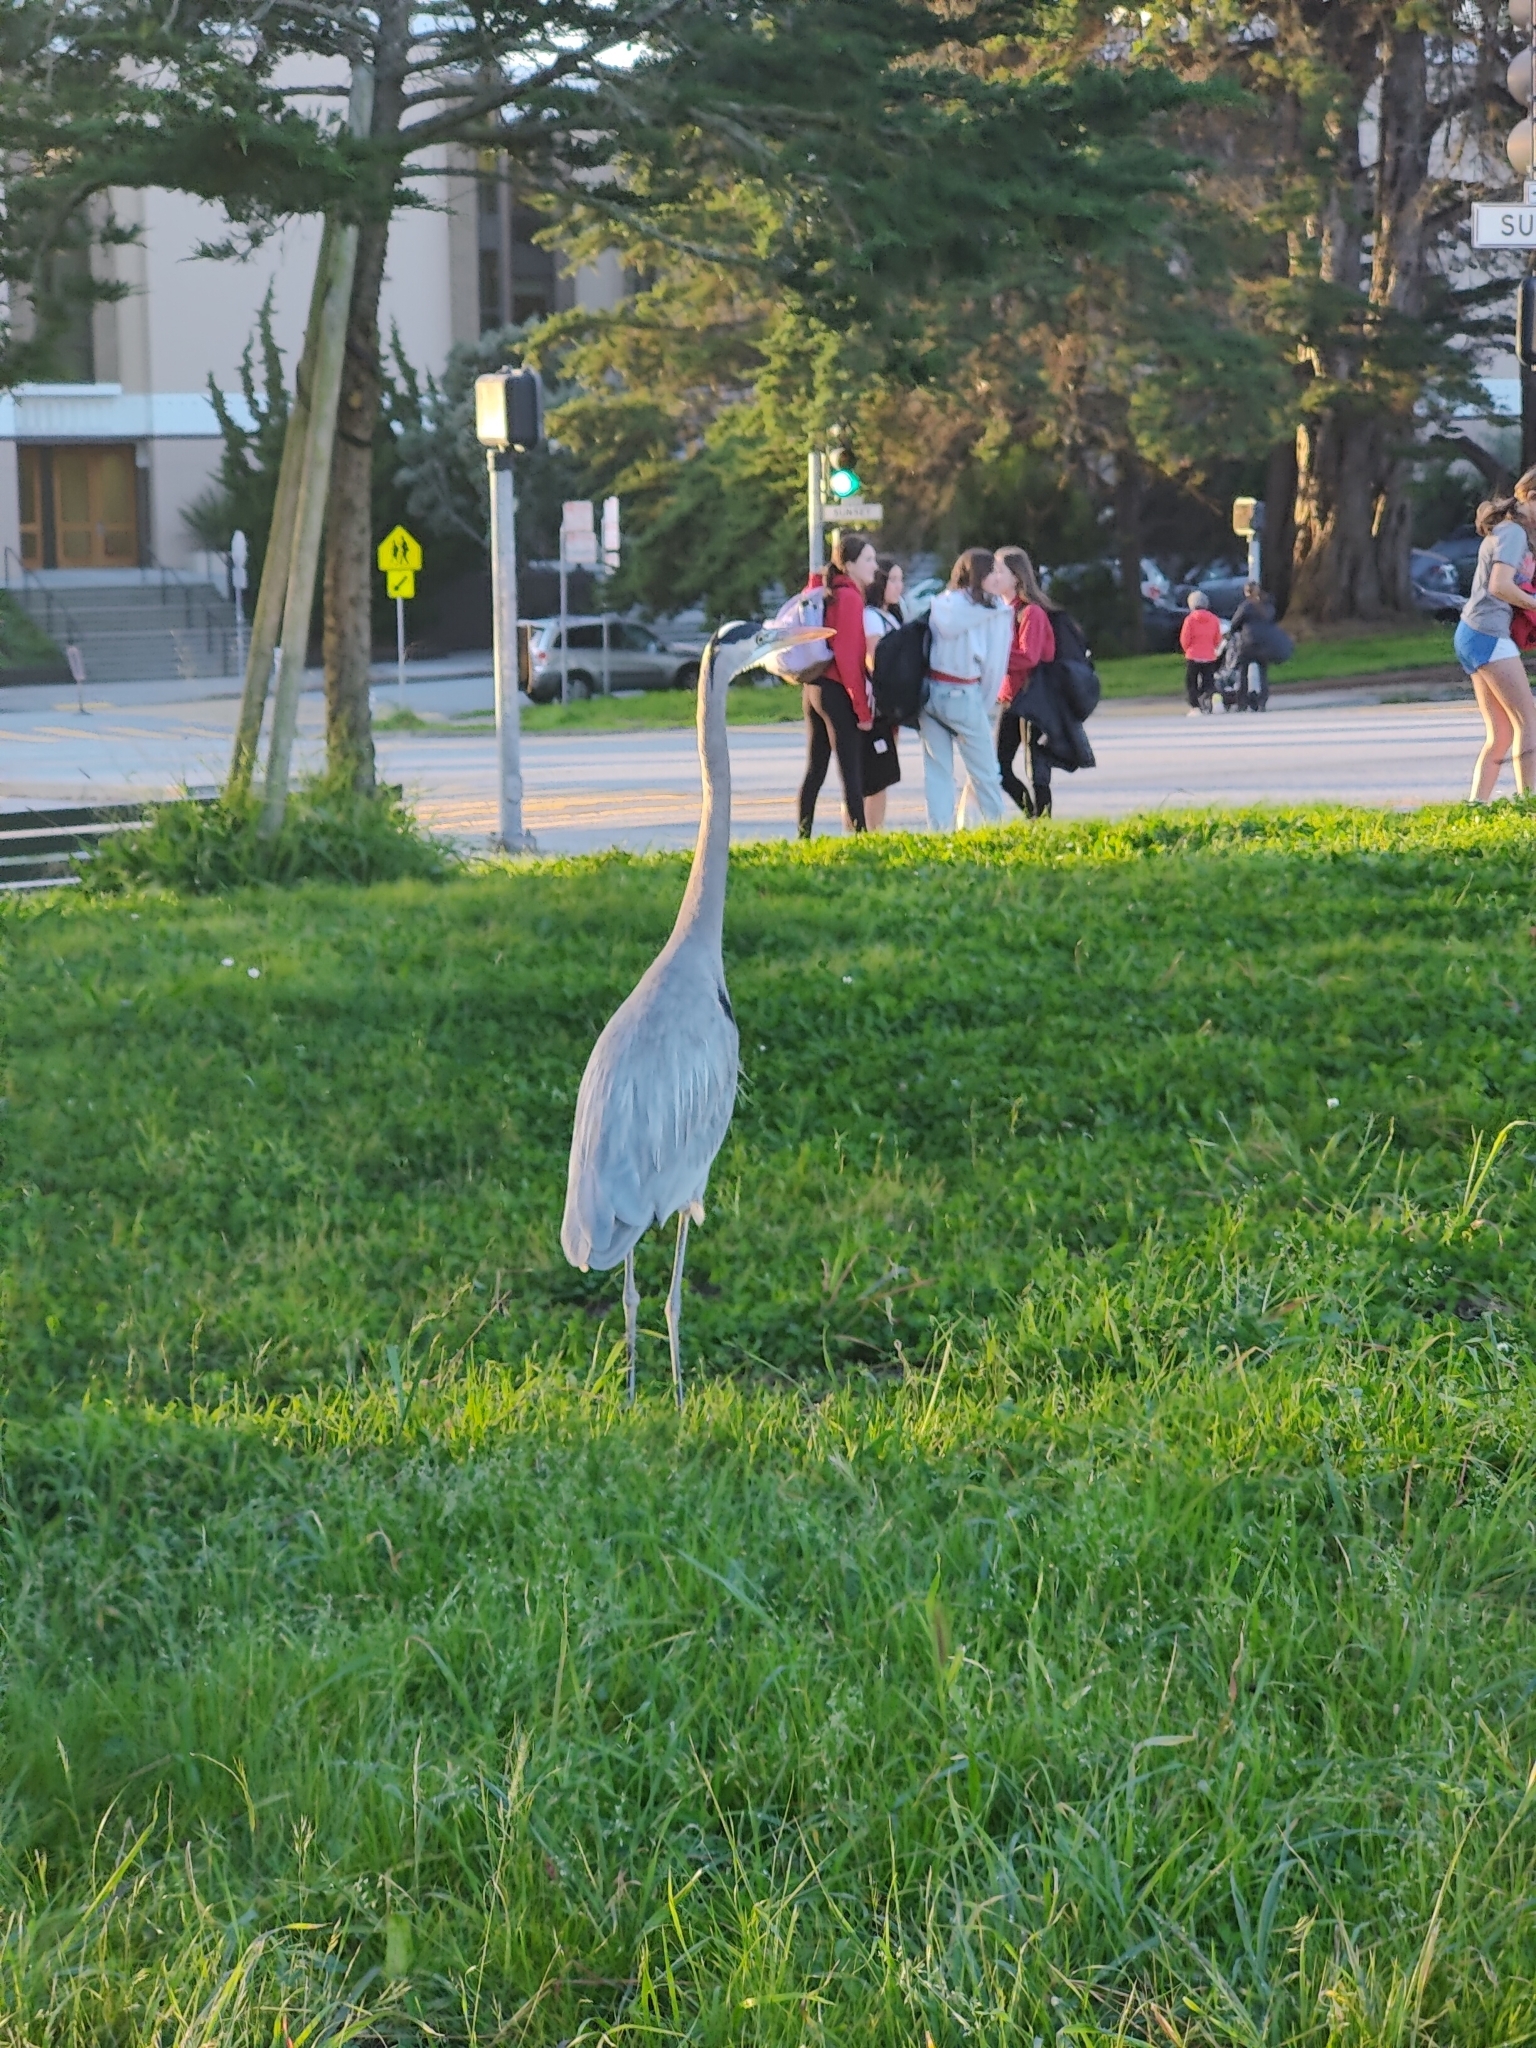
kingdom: Animalia
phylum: Chordata
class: Aves
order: Pelecaniformes
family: Ardeidae
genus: Ardea
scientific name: Ardea herodias
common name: Great blue heron
